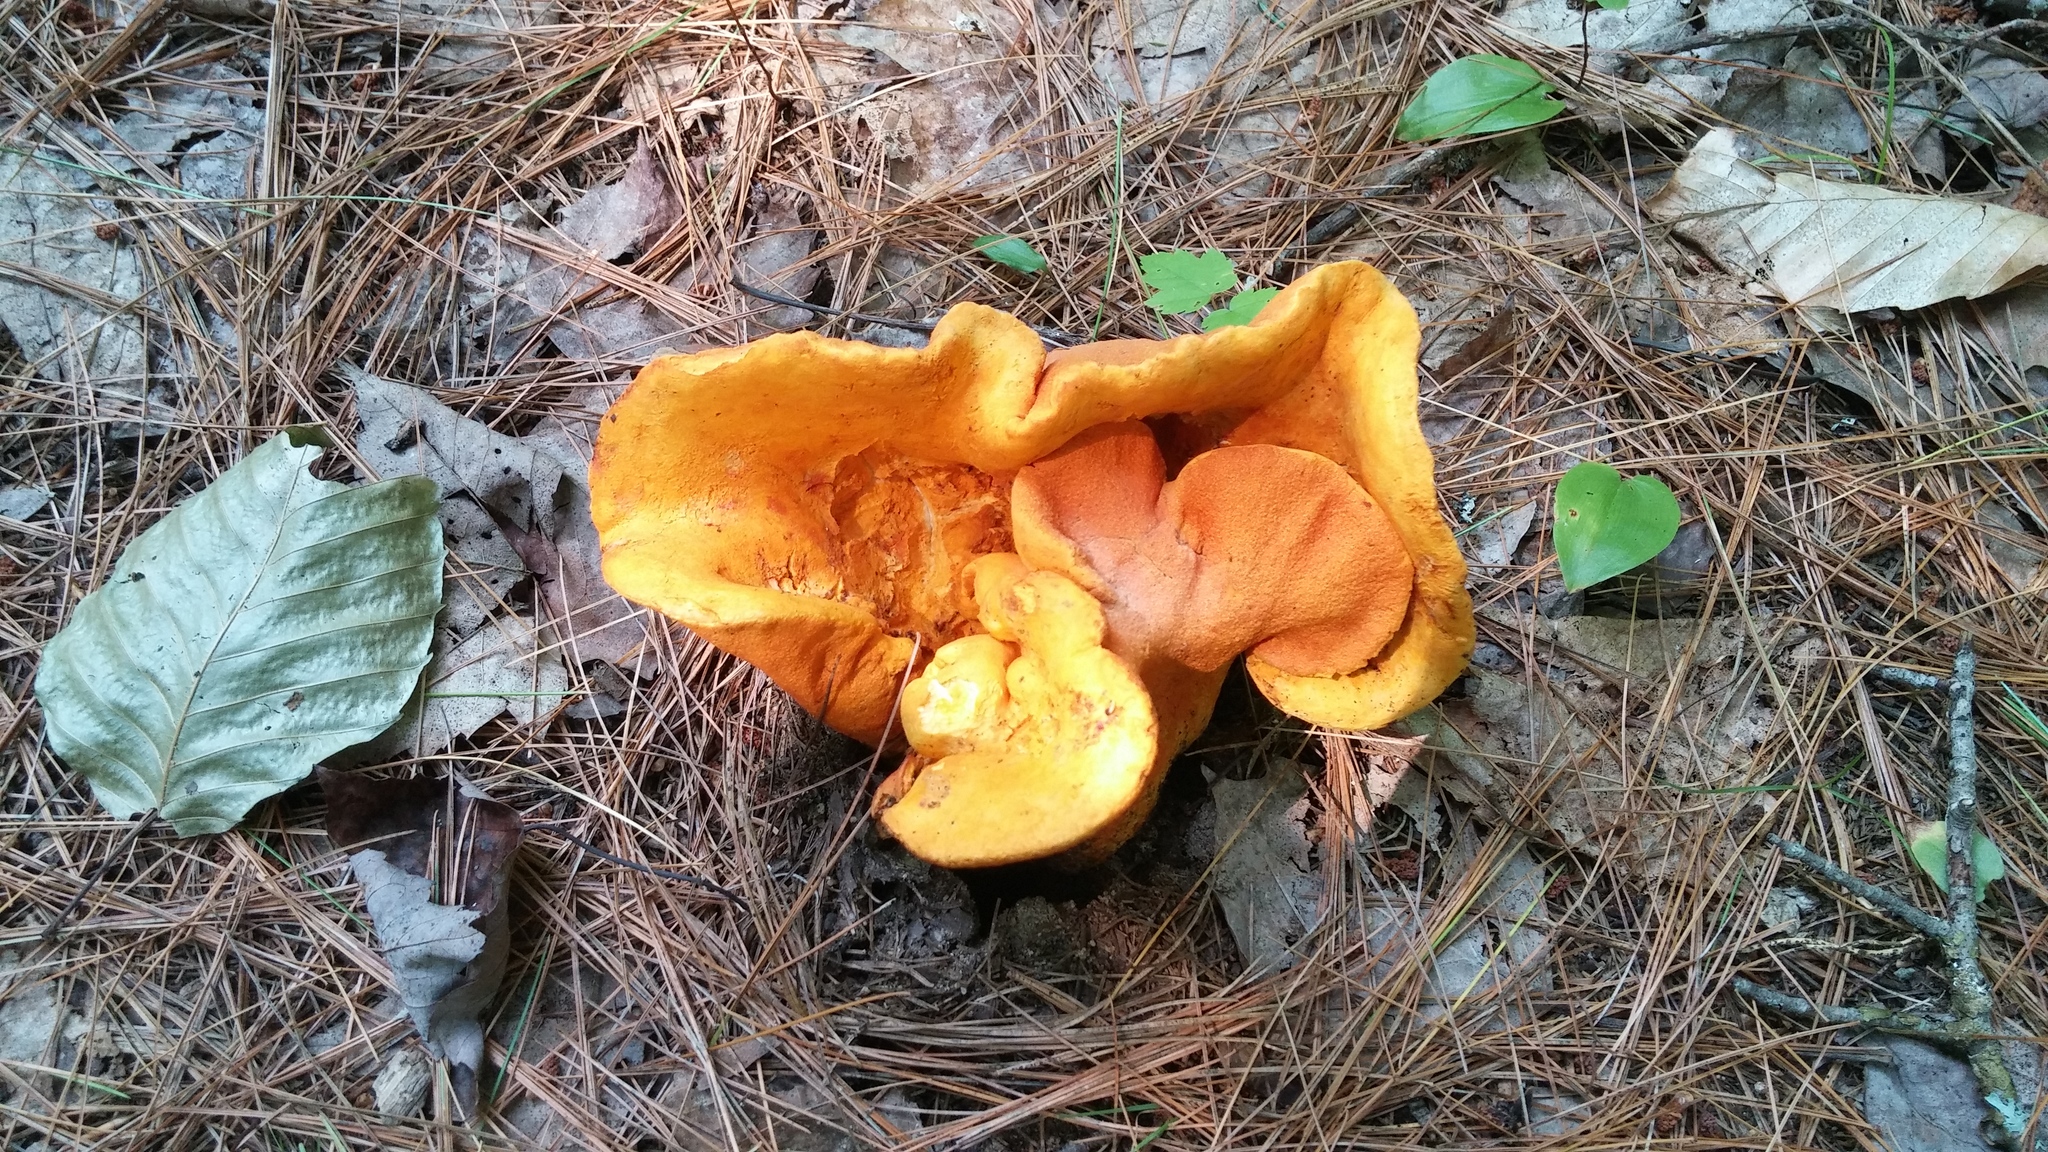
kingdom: Fungi
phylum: Ascomycota
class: Sordariomycetes
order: Hypocreales
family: Hypocreaceae
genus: Hypomyces
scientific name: Hypomyces lactifluorum
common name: Lobster mushroom
